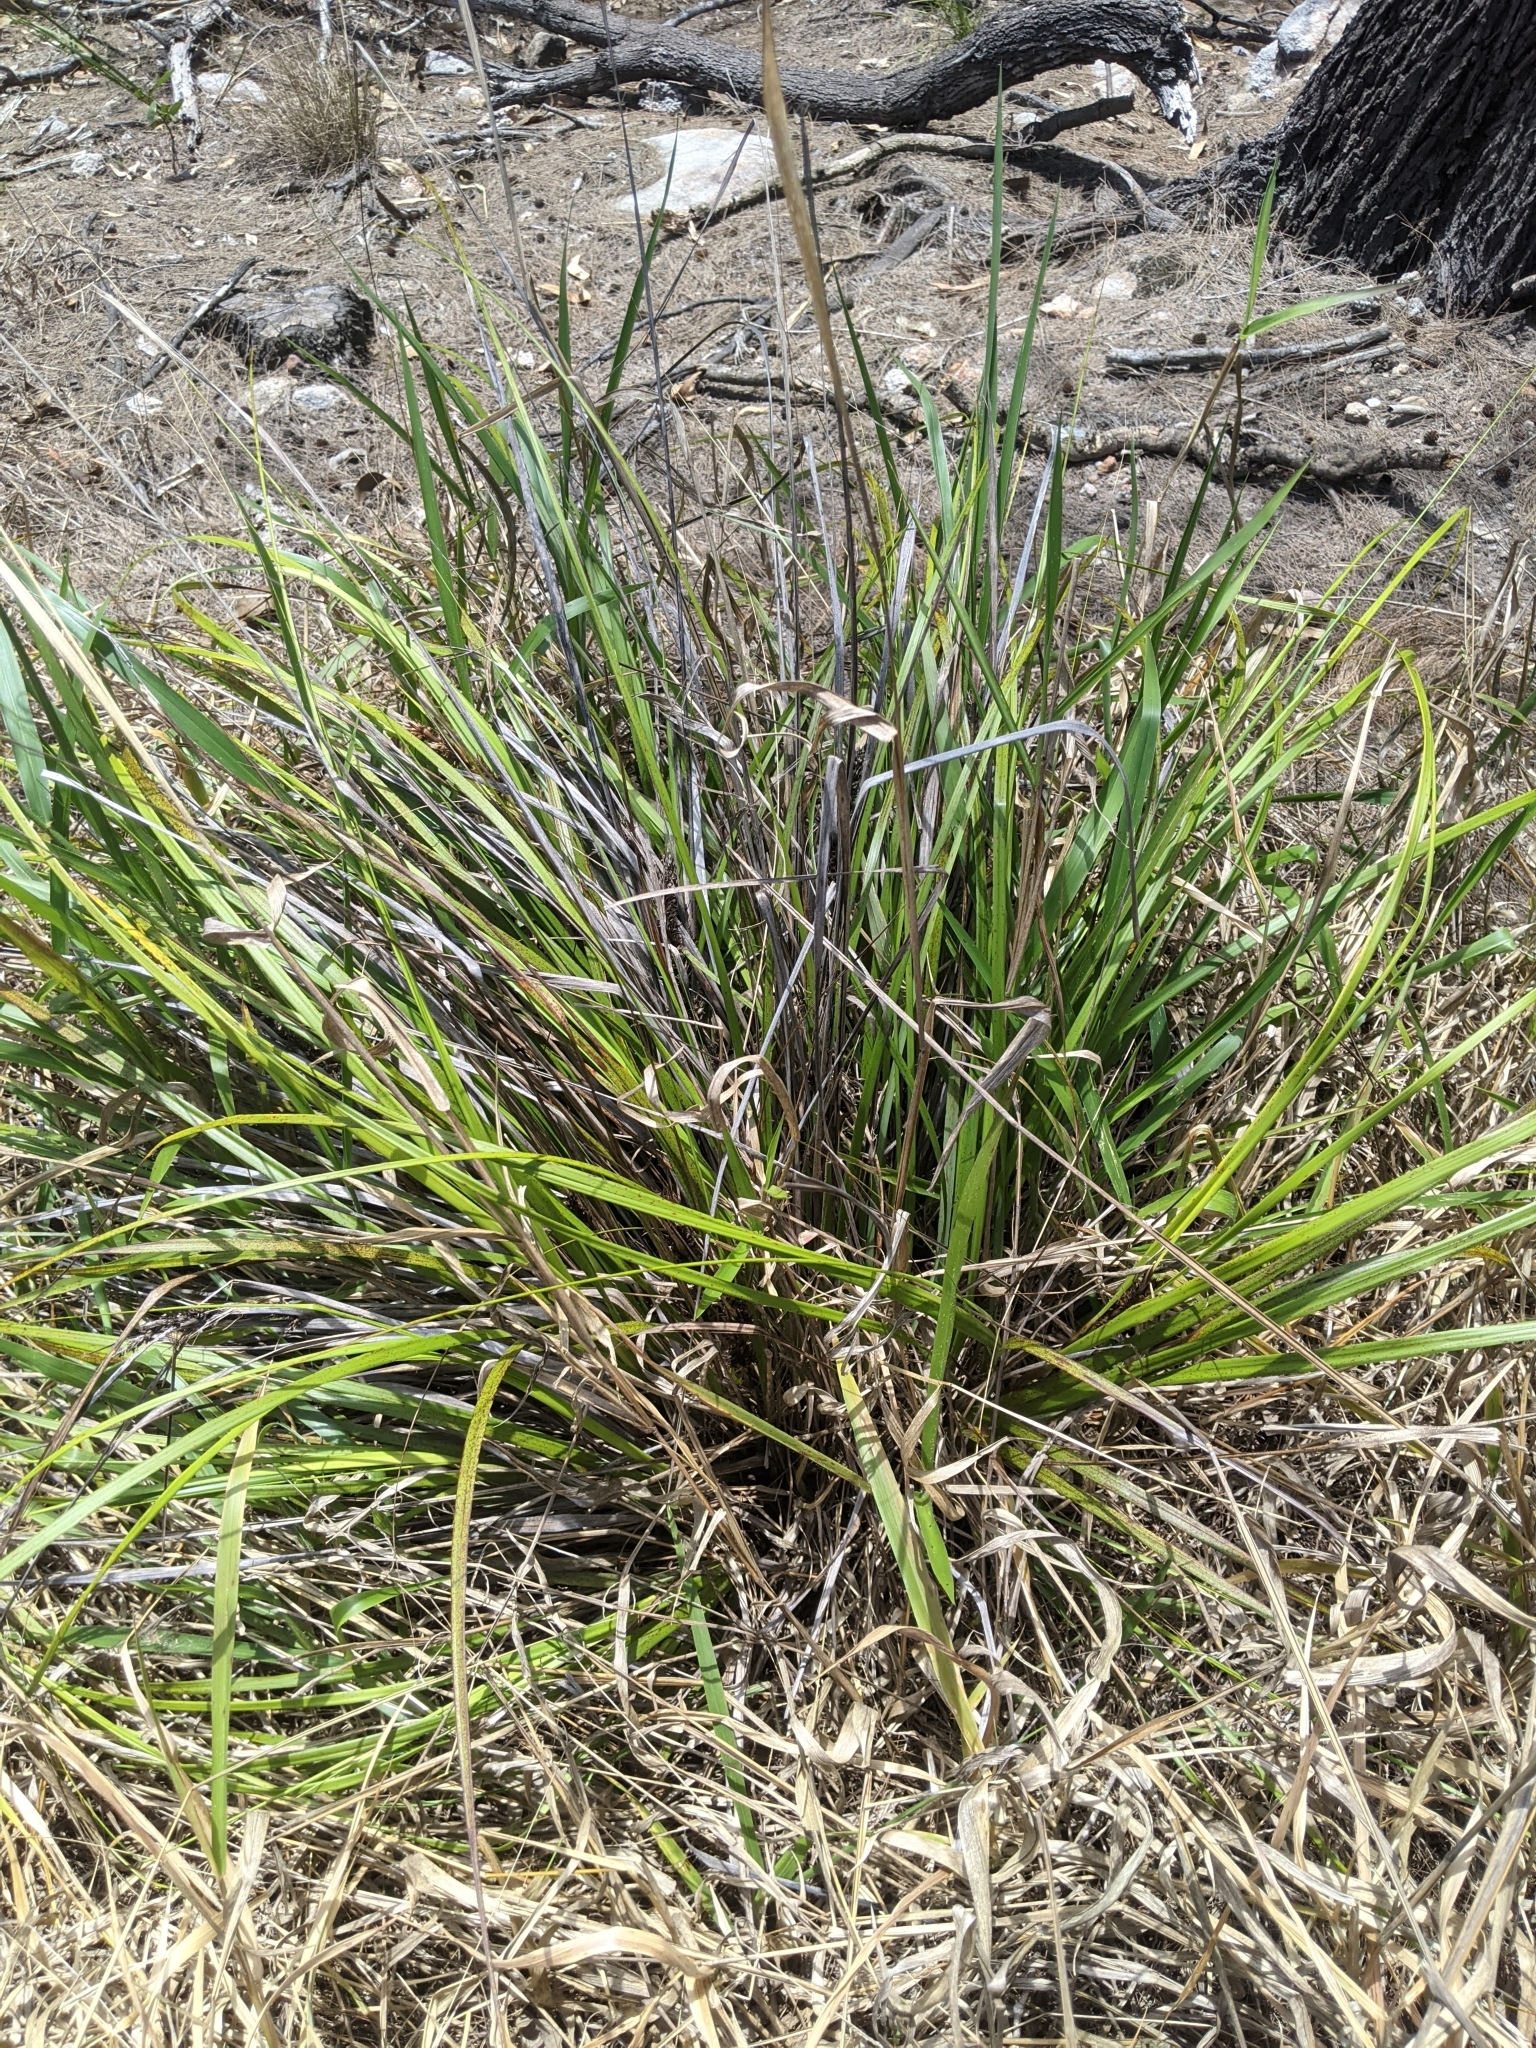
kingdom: Plantae
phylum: Tracheophyta
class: Liliopsida
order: Poales
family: Cyperaceae
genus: Gahnia
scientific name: Gahnia aspera
